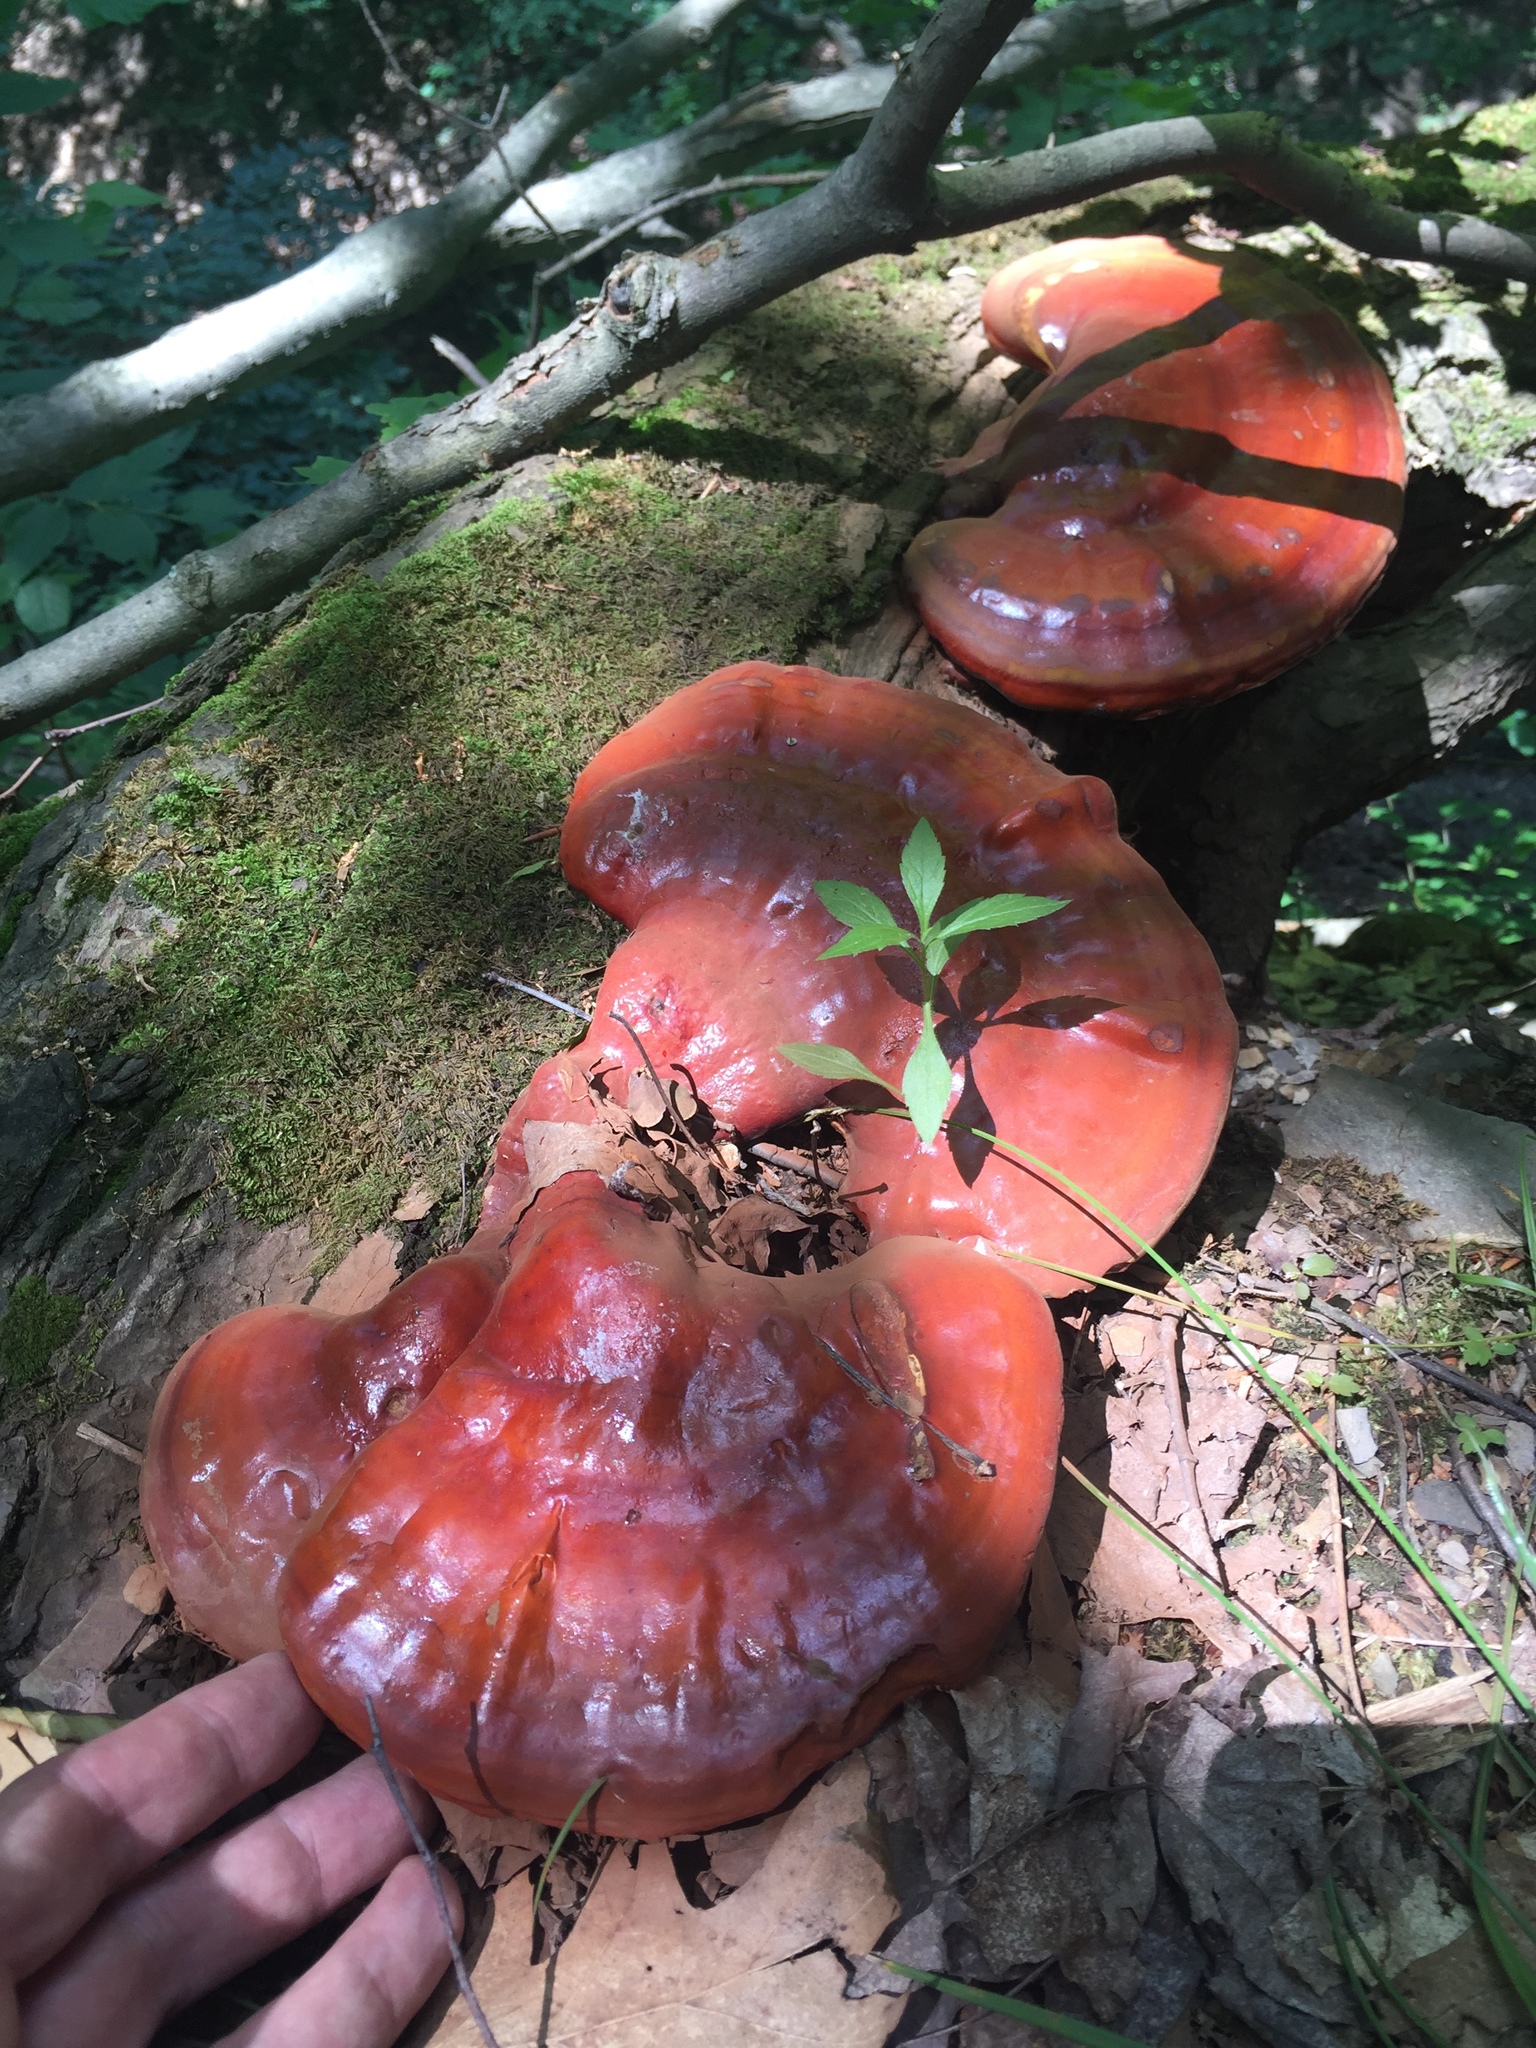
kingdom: Fungi
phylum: Basidiomycota
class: Agaricomycetes
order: Polyporales
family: Polyporaceae
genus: Ganoderma
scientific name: Ganoderma tsugae
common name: Hemlock varnish shelf
